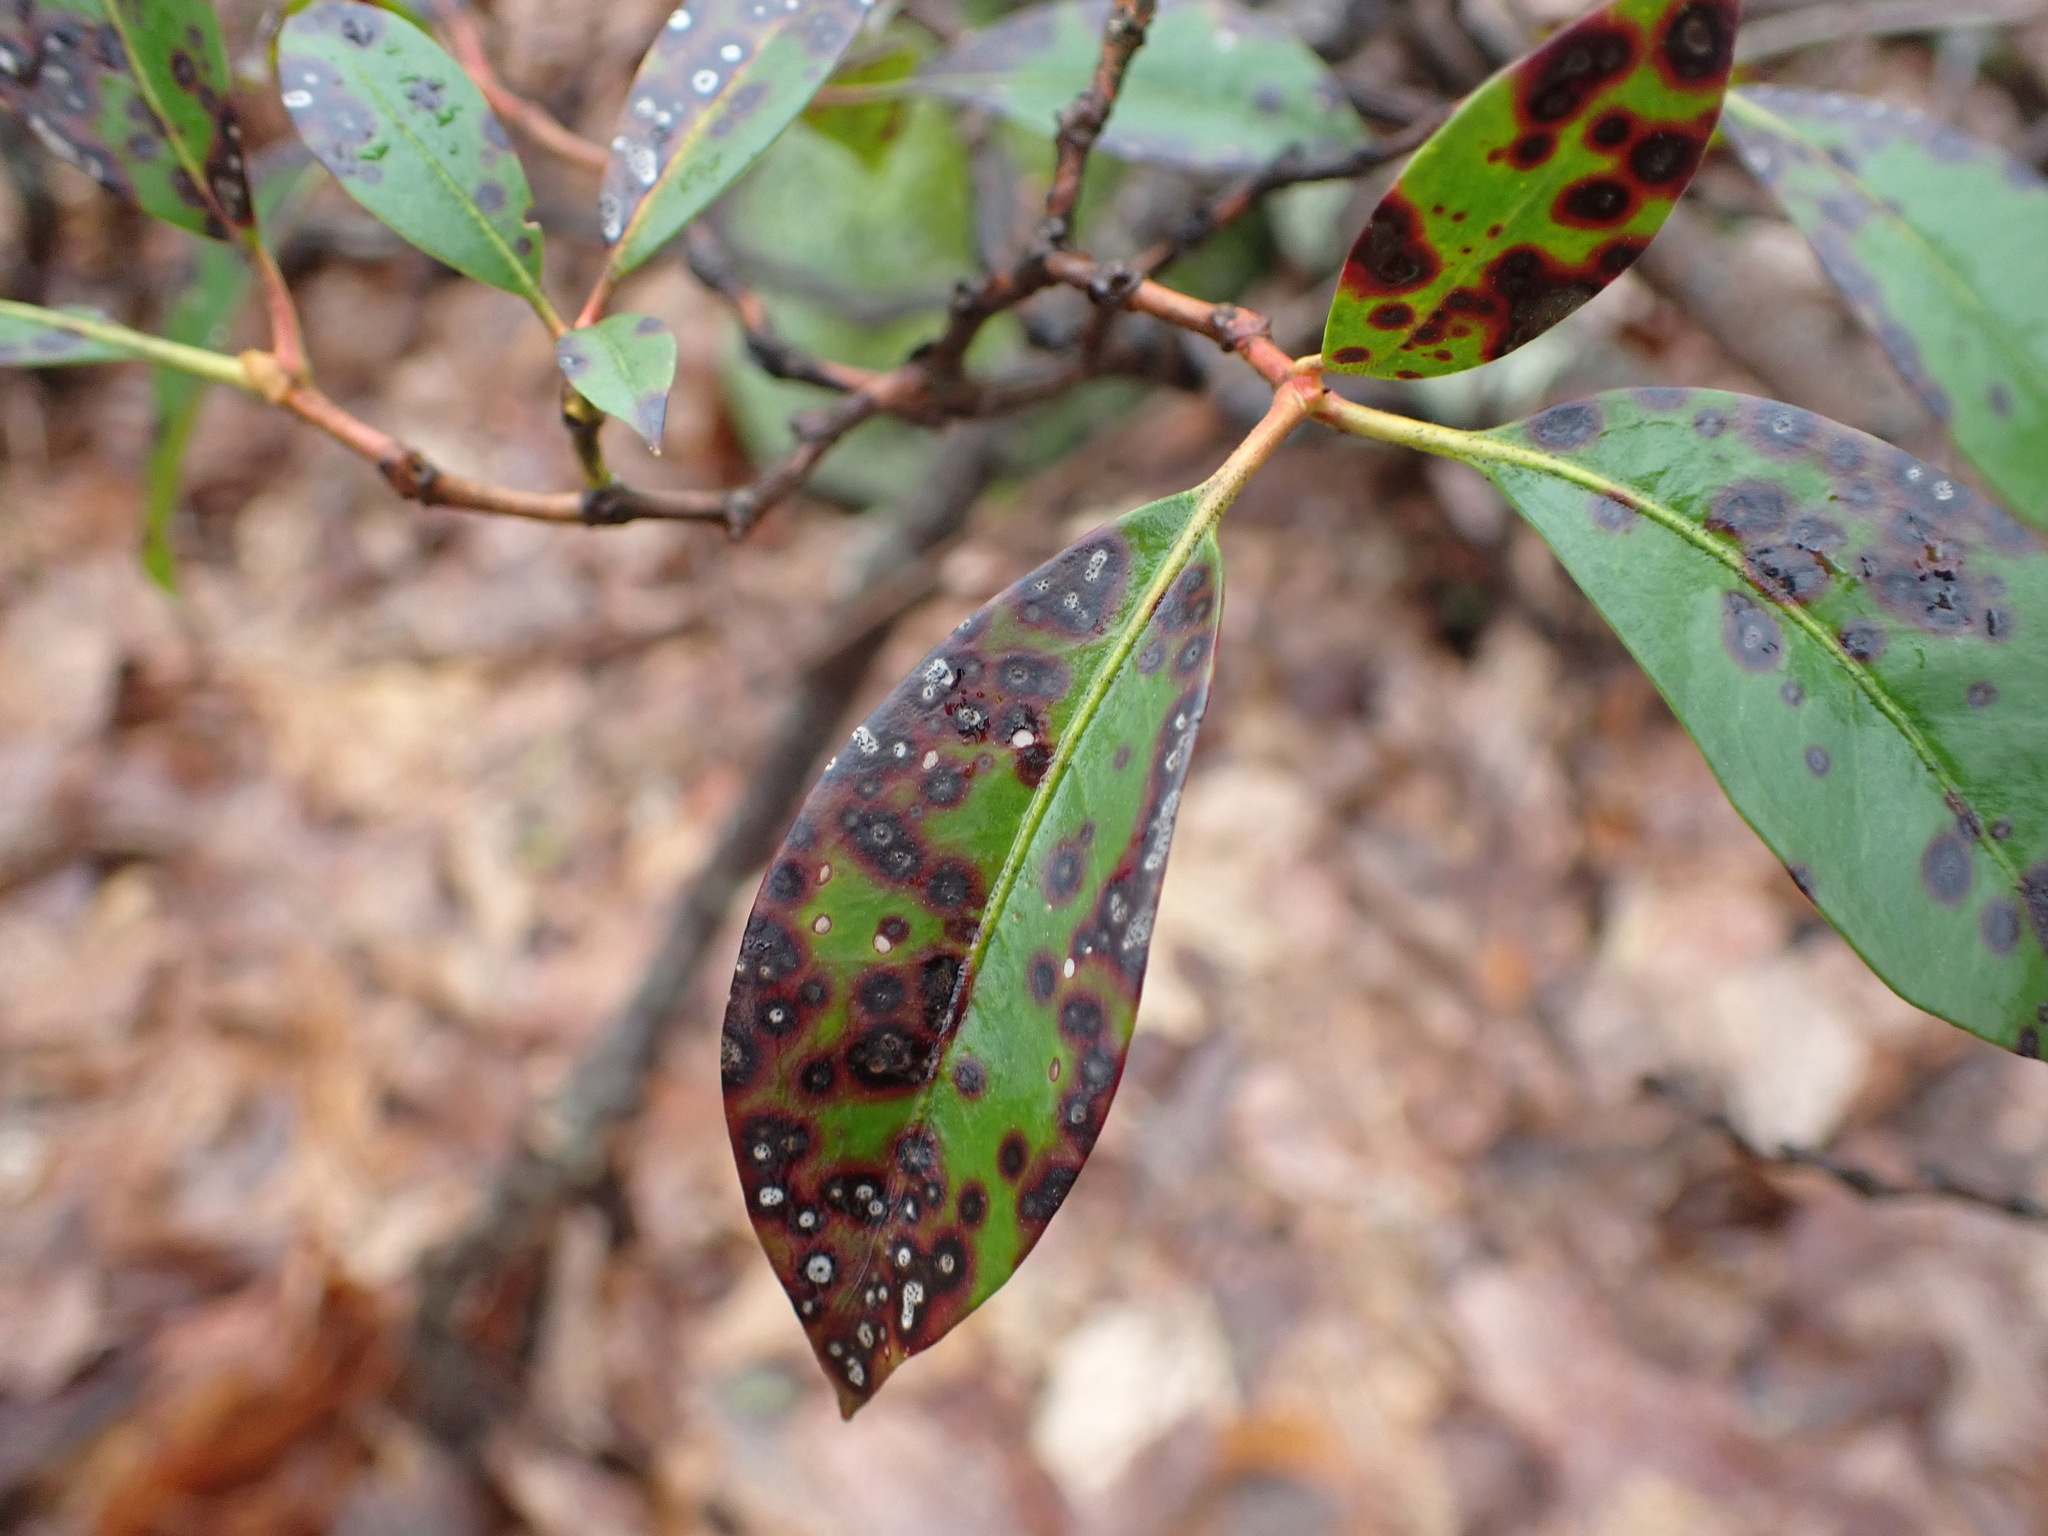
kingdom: Plantae
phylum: Tracheophyta
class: Magnoliopsida
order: Ericales
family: Ericaceae
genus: Kalmia
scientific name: Kalmia latifolia
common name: Mountain-laurel
